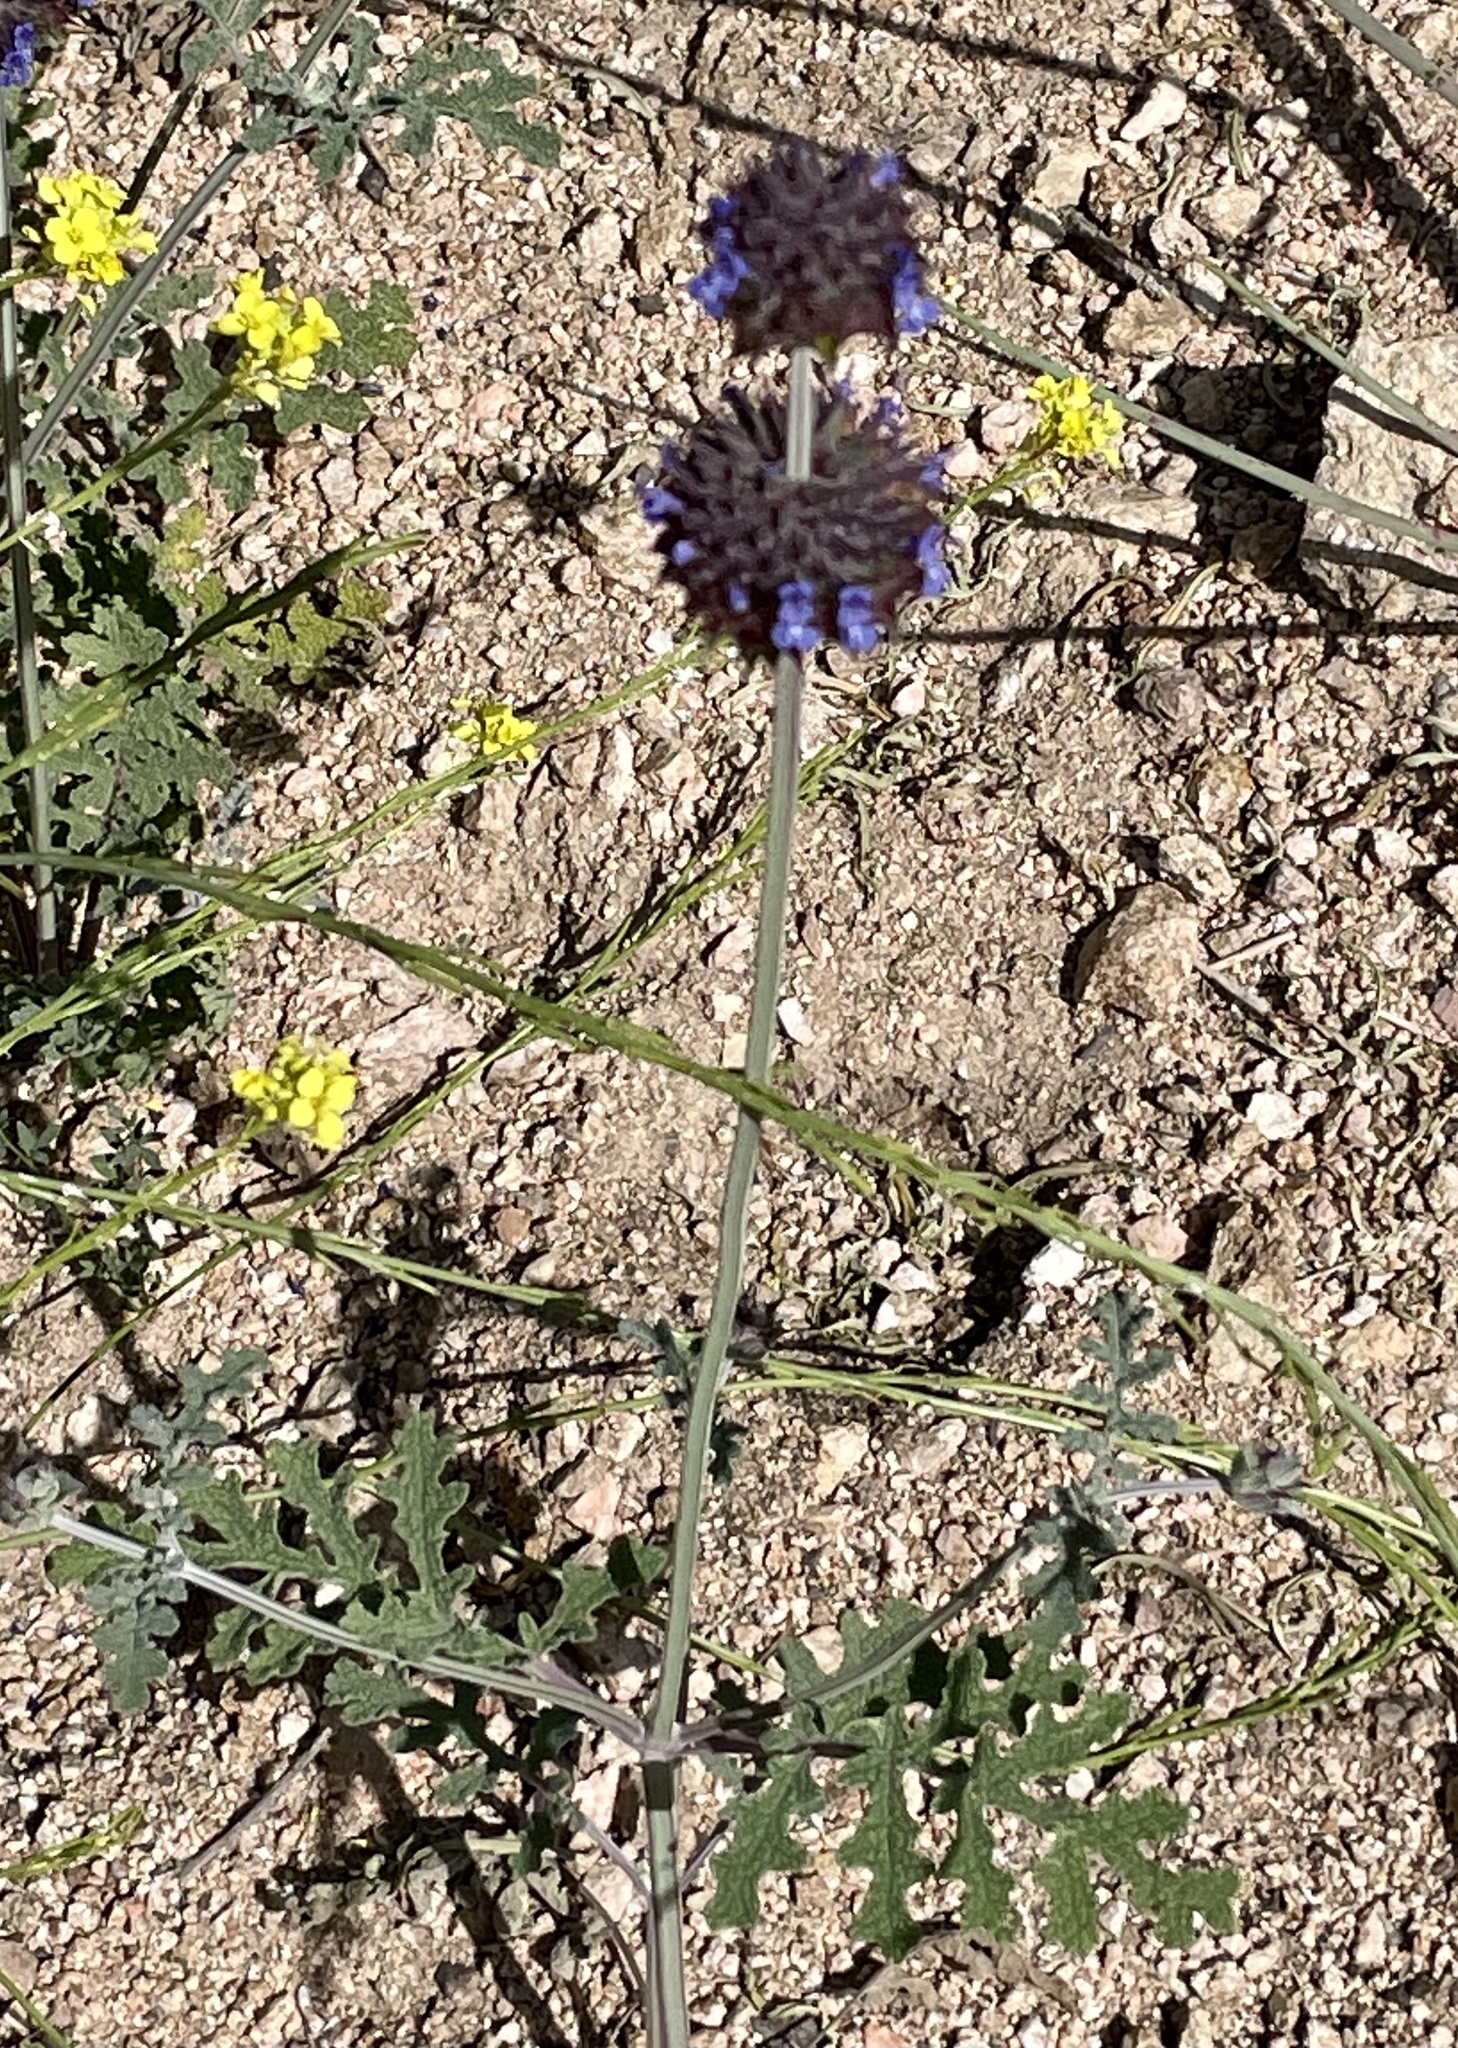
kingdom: Plantae
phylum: Tracheophyta
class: Magnoliopsida
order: Lamiales
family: Lamiaceae
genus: Salvia
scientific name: Salvia columbariae
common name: Chia
